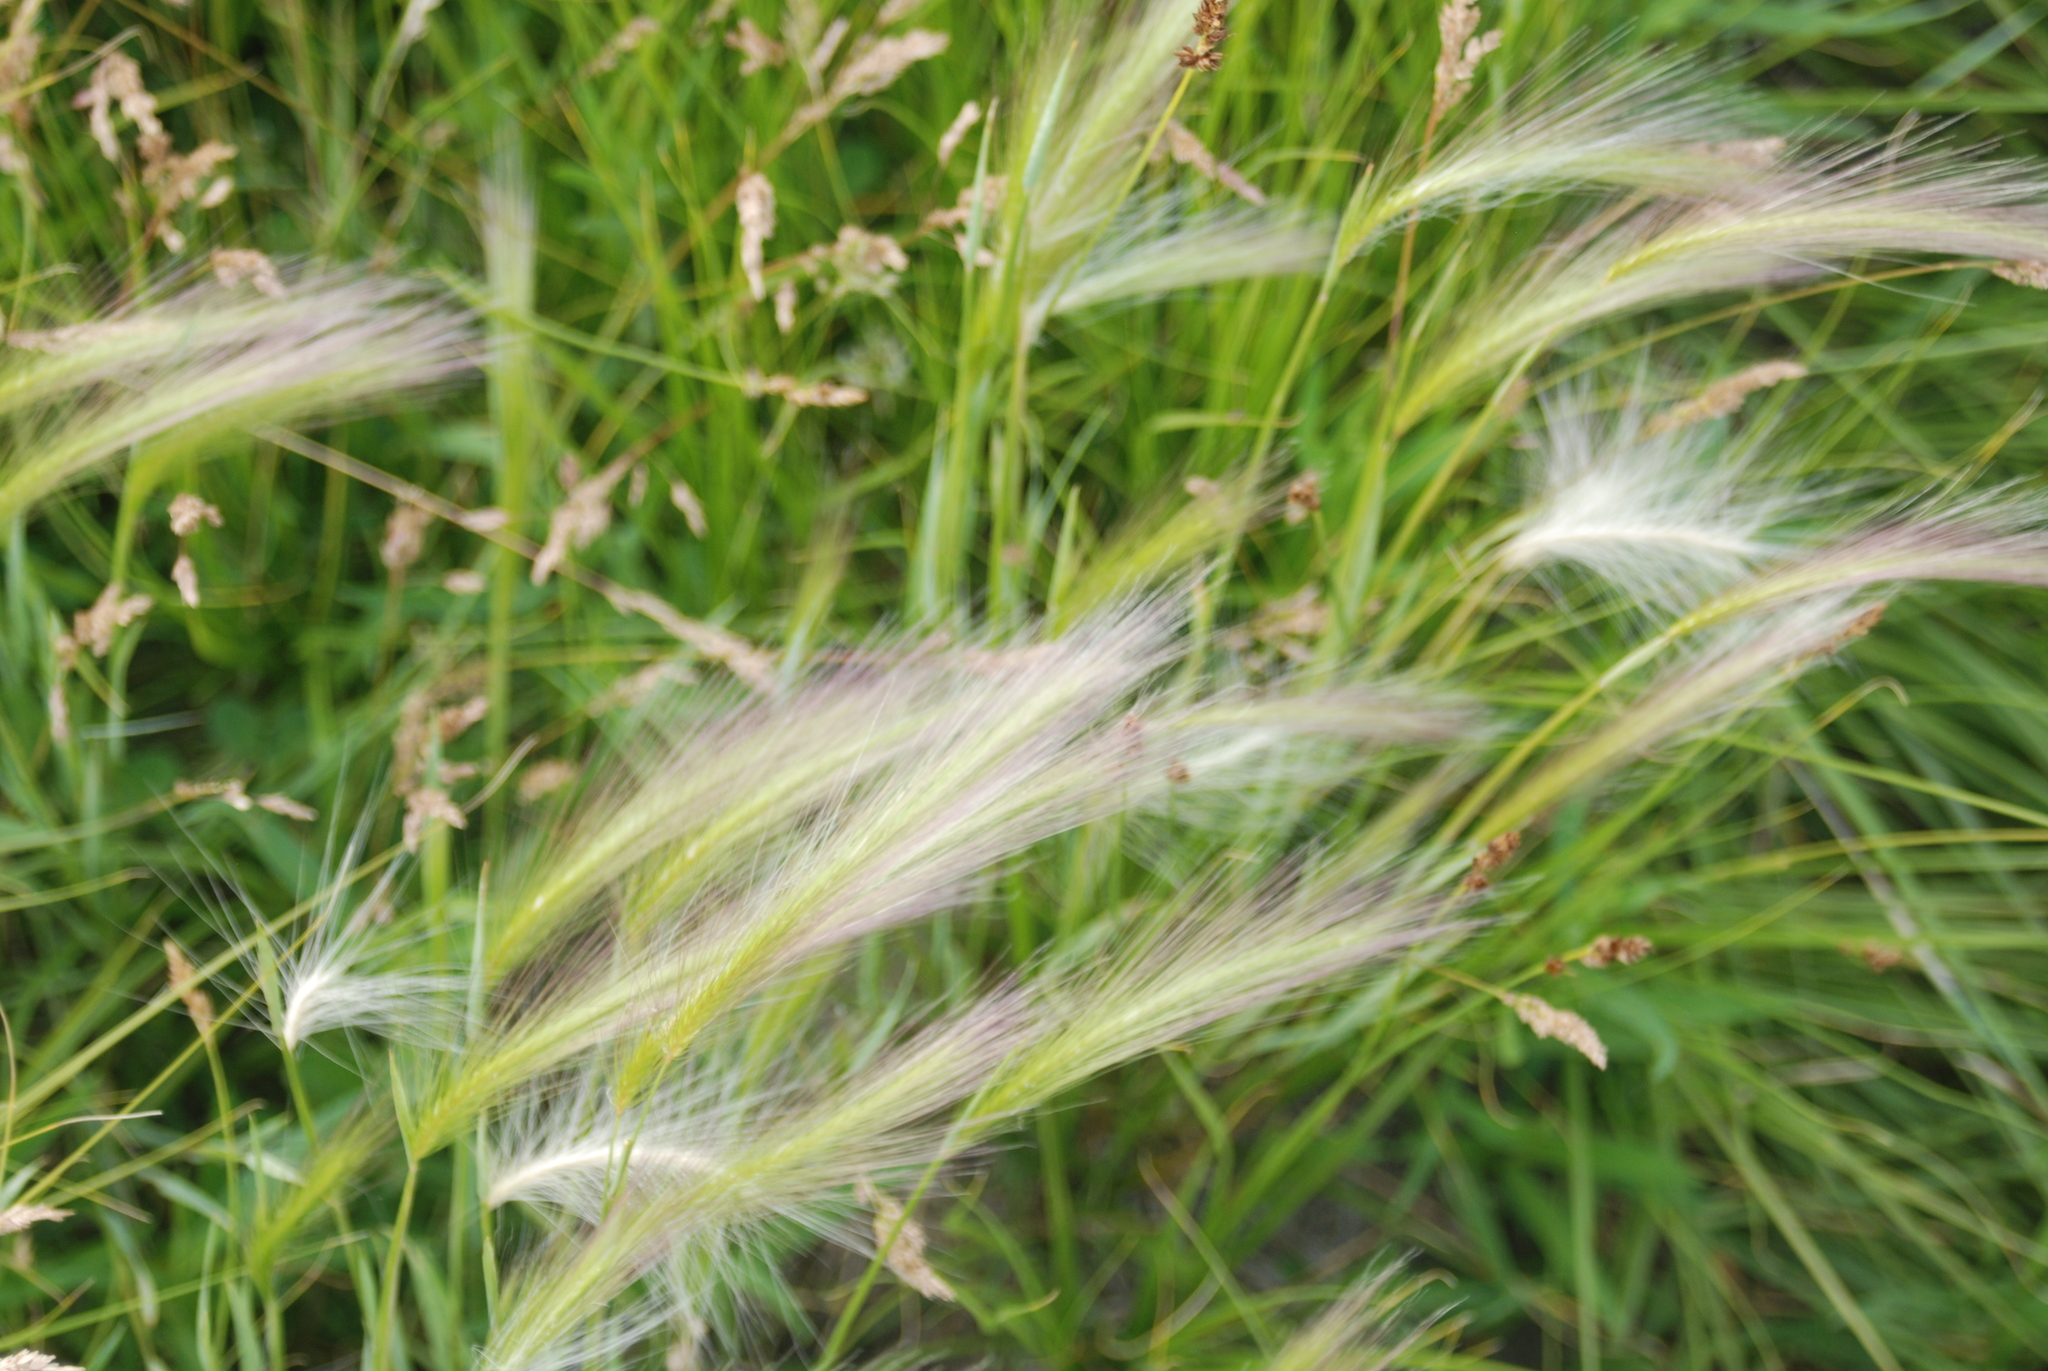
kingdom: Plantae
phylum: Tracheophyta
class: Liliopsida
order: Poales
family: Poaceae
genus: Hordeum
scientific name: Hordeum jubatum
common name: Foxtail barley
